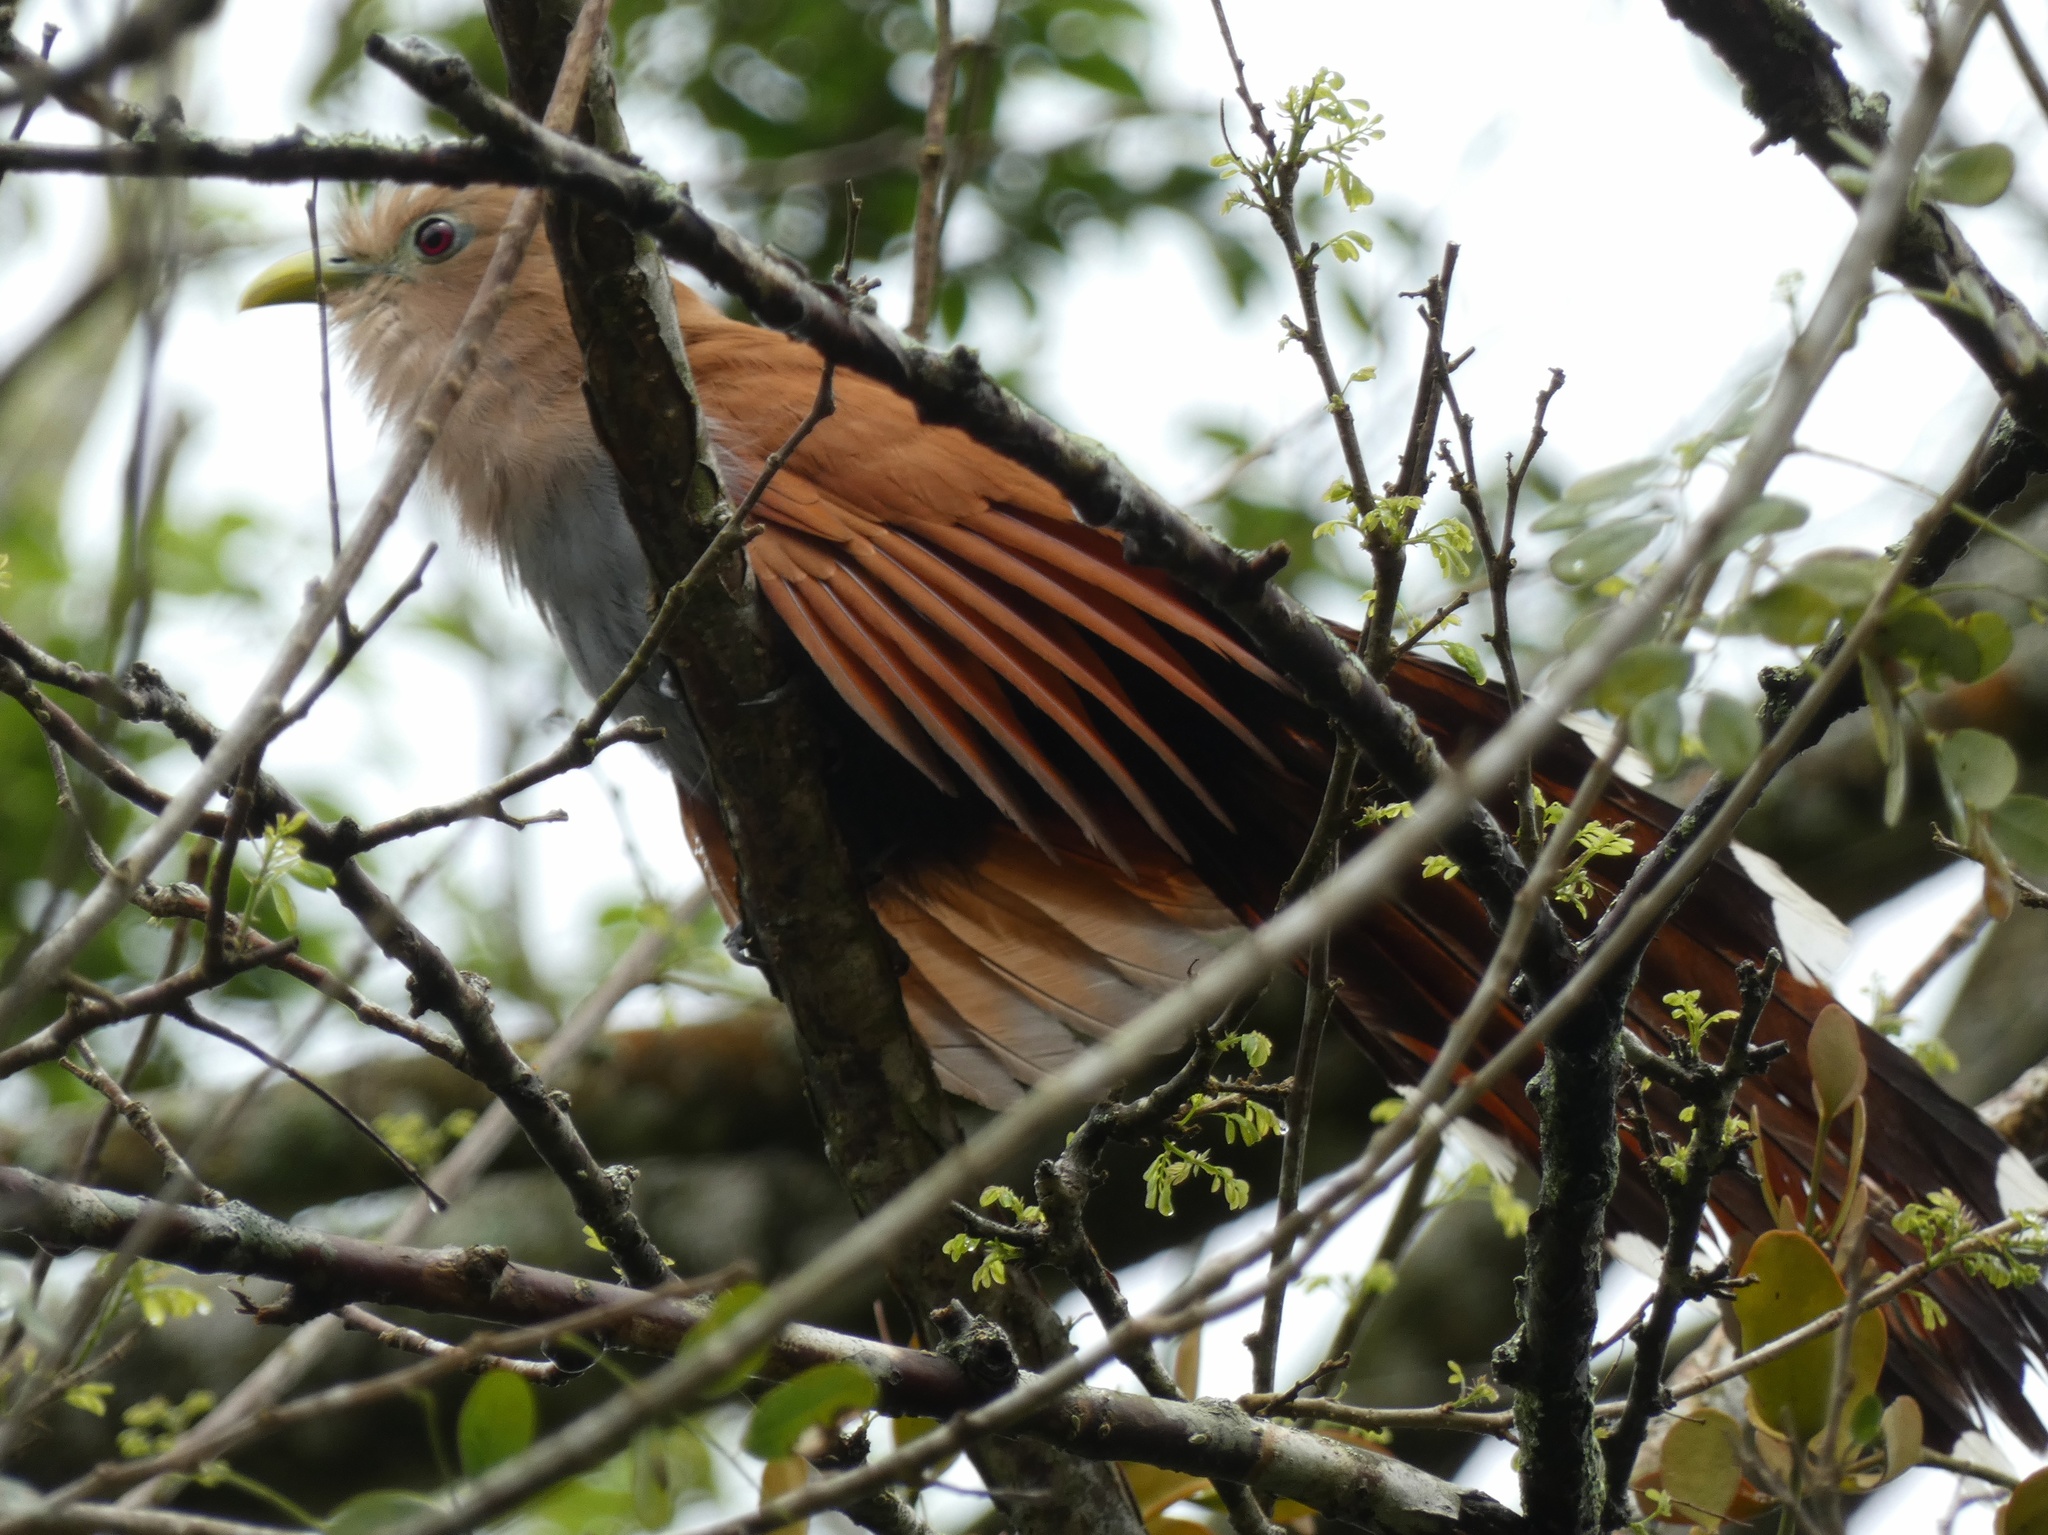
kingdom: Animalia
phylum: Chordata
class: Aves
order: Cuculiformes
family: Cuculidae
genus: Piaya
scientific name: Piaya cayana
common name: Squirrel cuckoo
